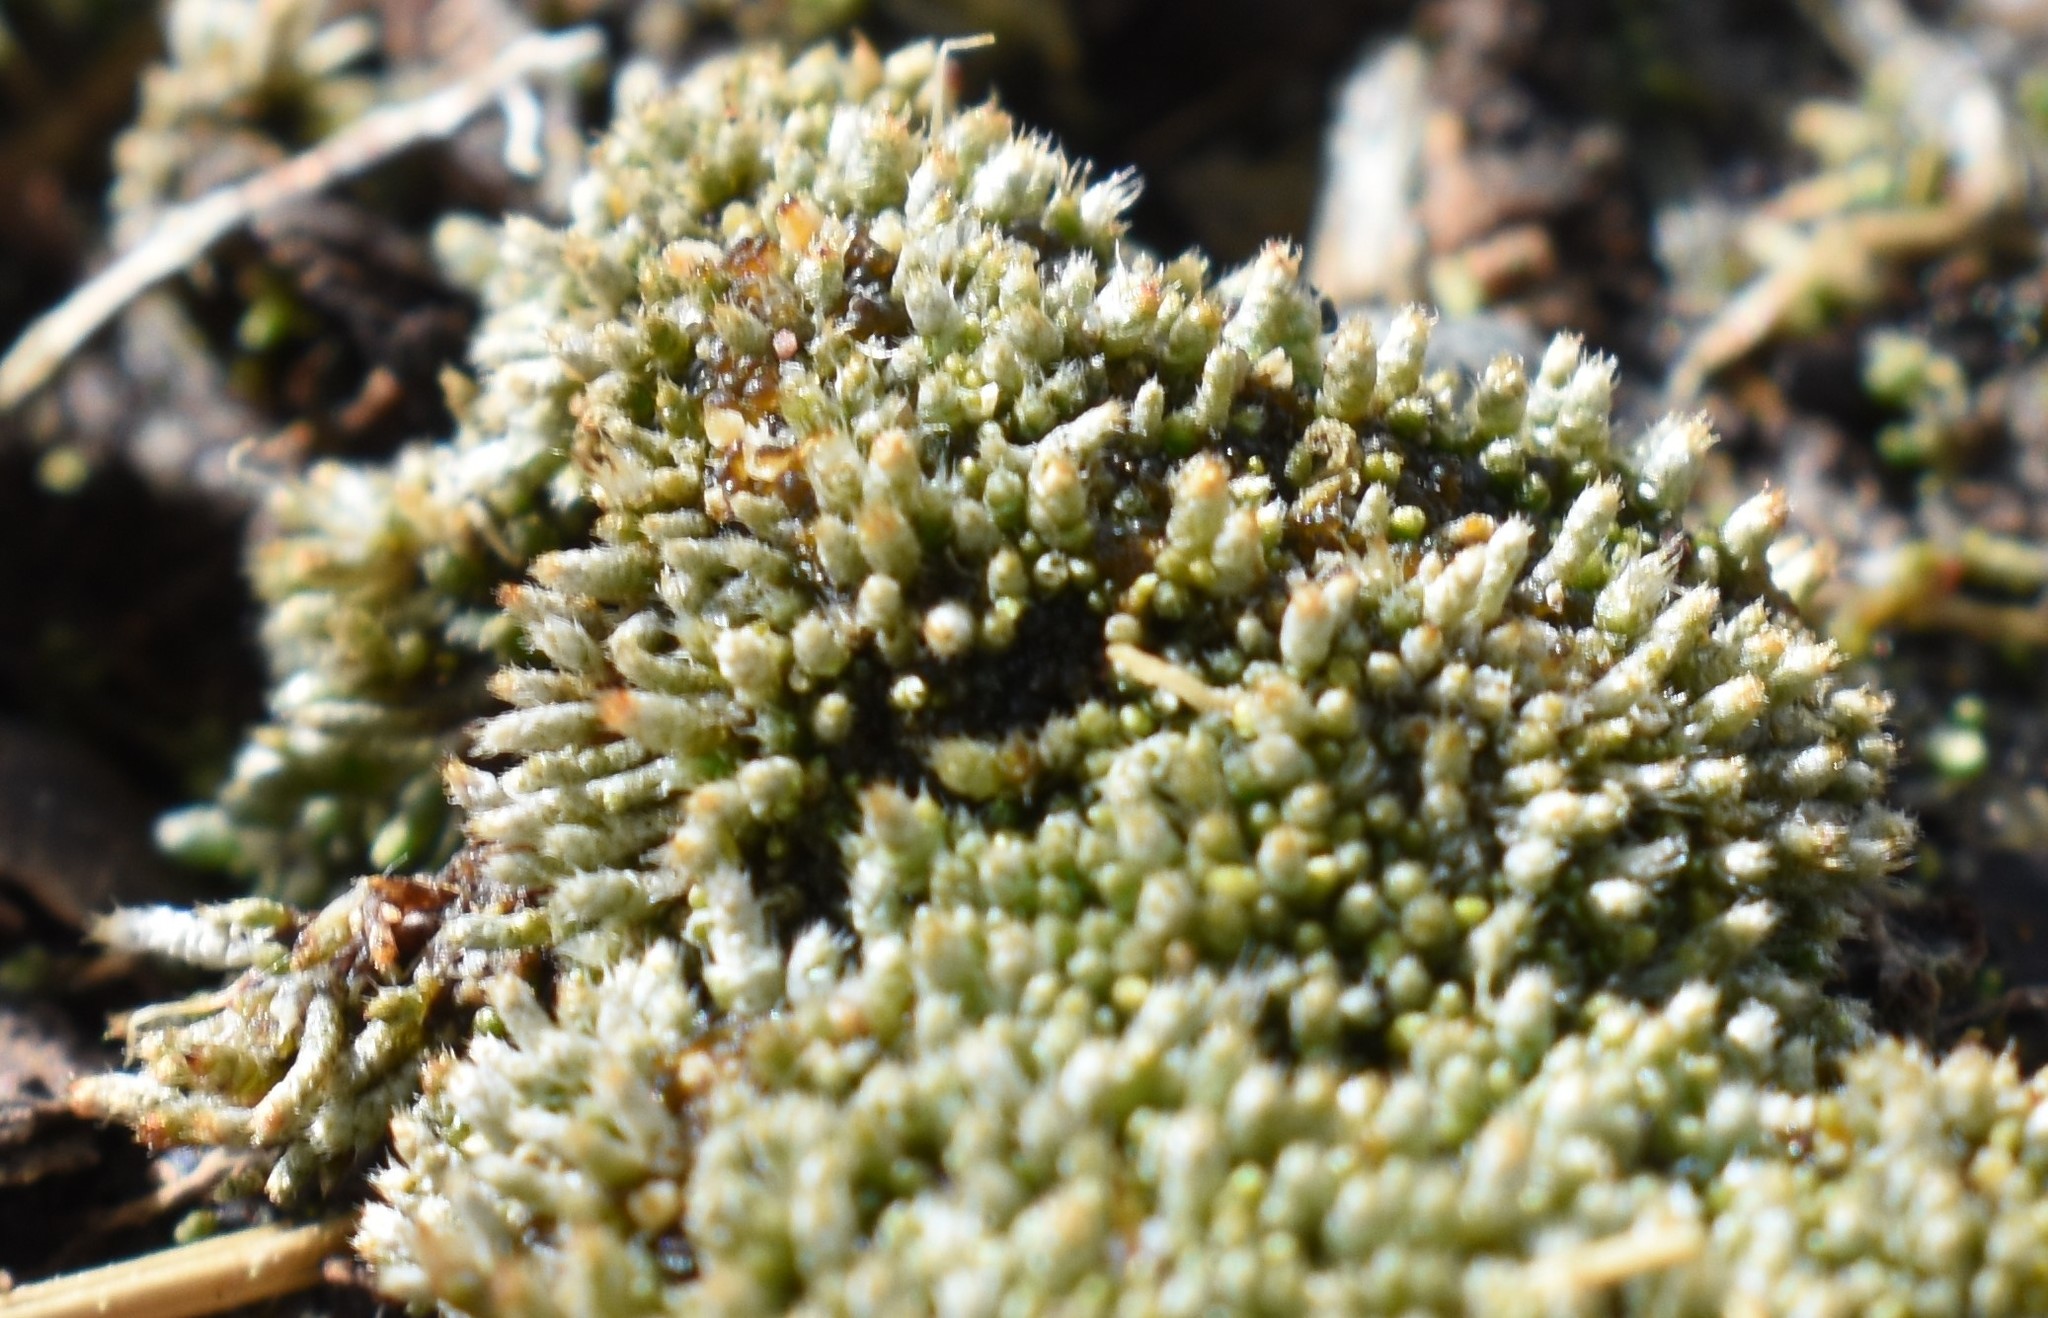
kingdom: Plantae
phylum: Bryophyta
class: Bryopsida
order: Bryales
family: Bryaceae
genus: Bryum
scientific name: Bryum argenteum
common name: Silver-moss
